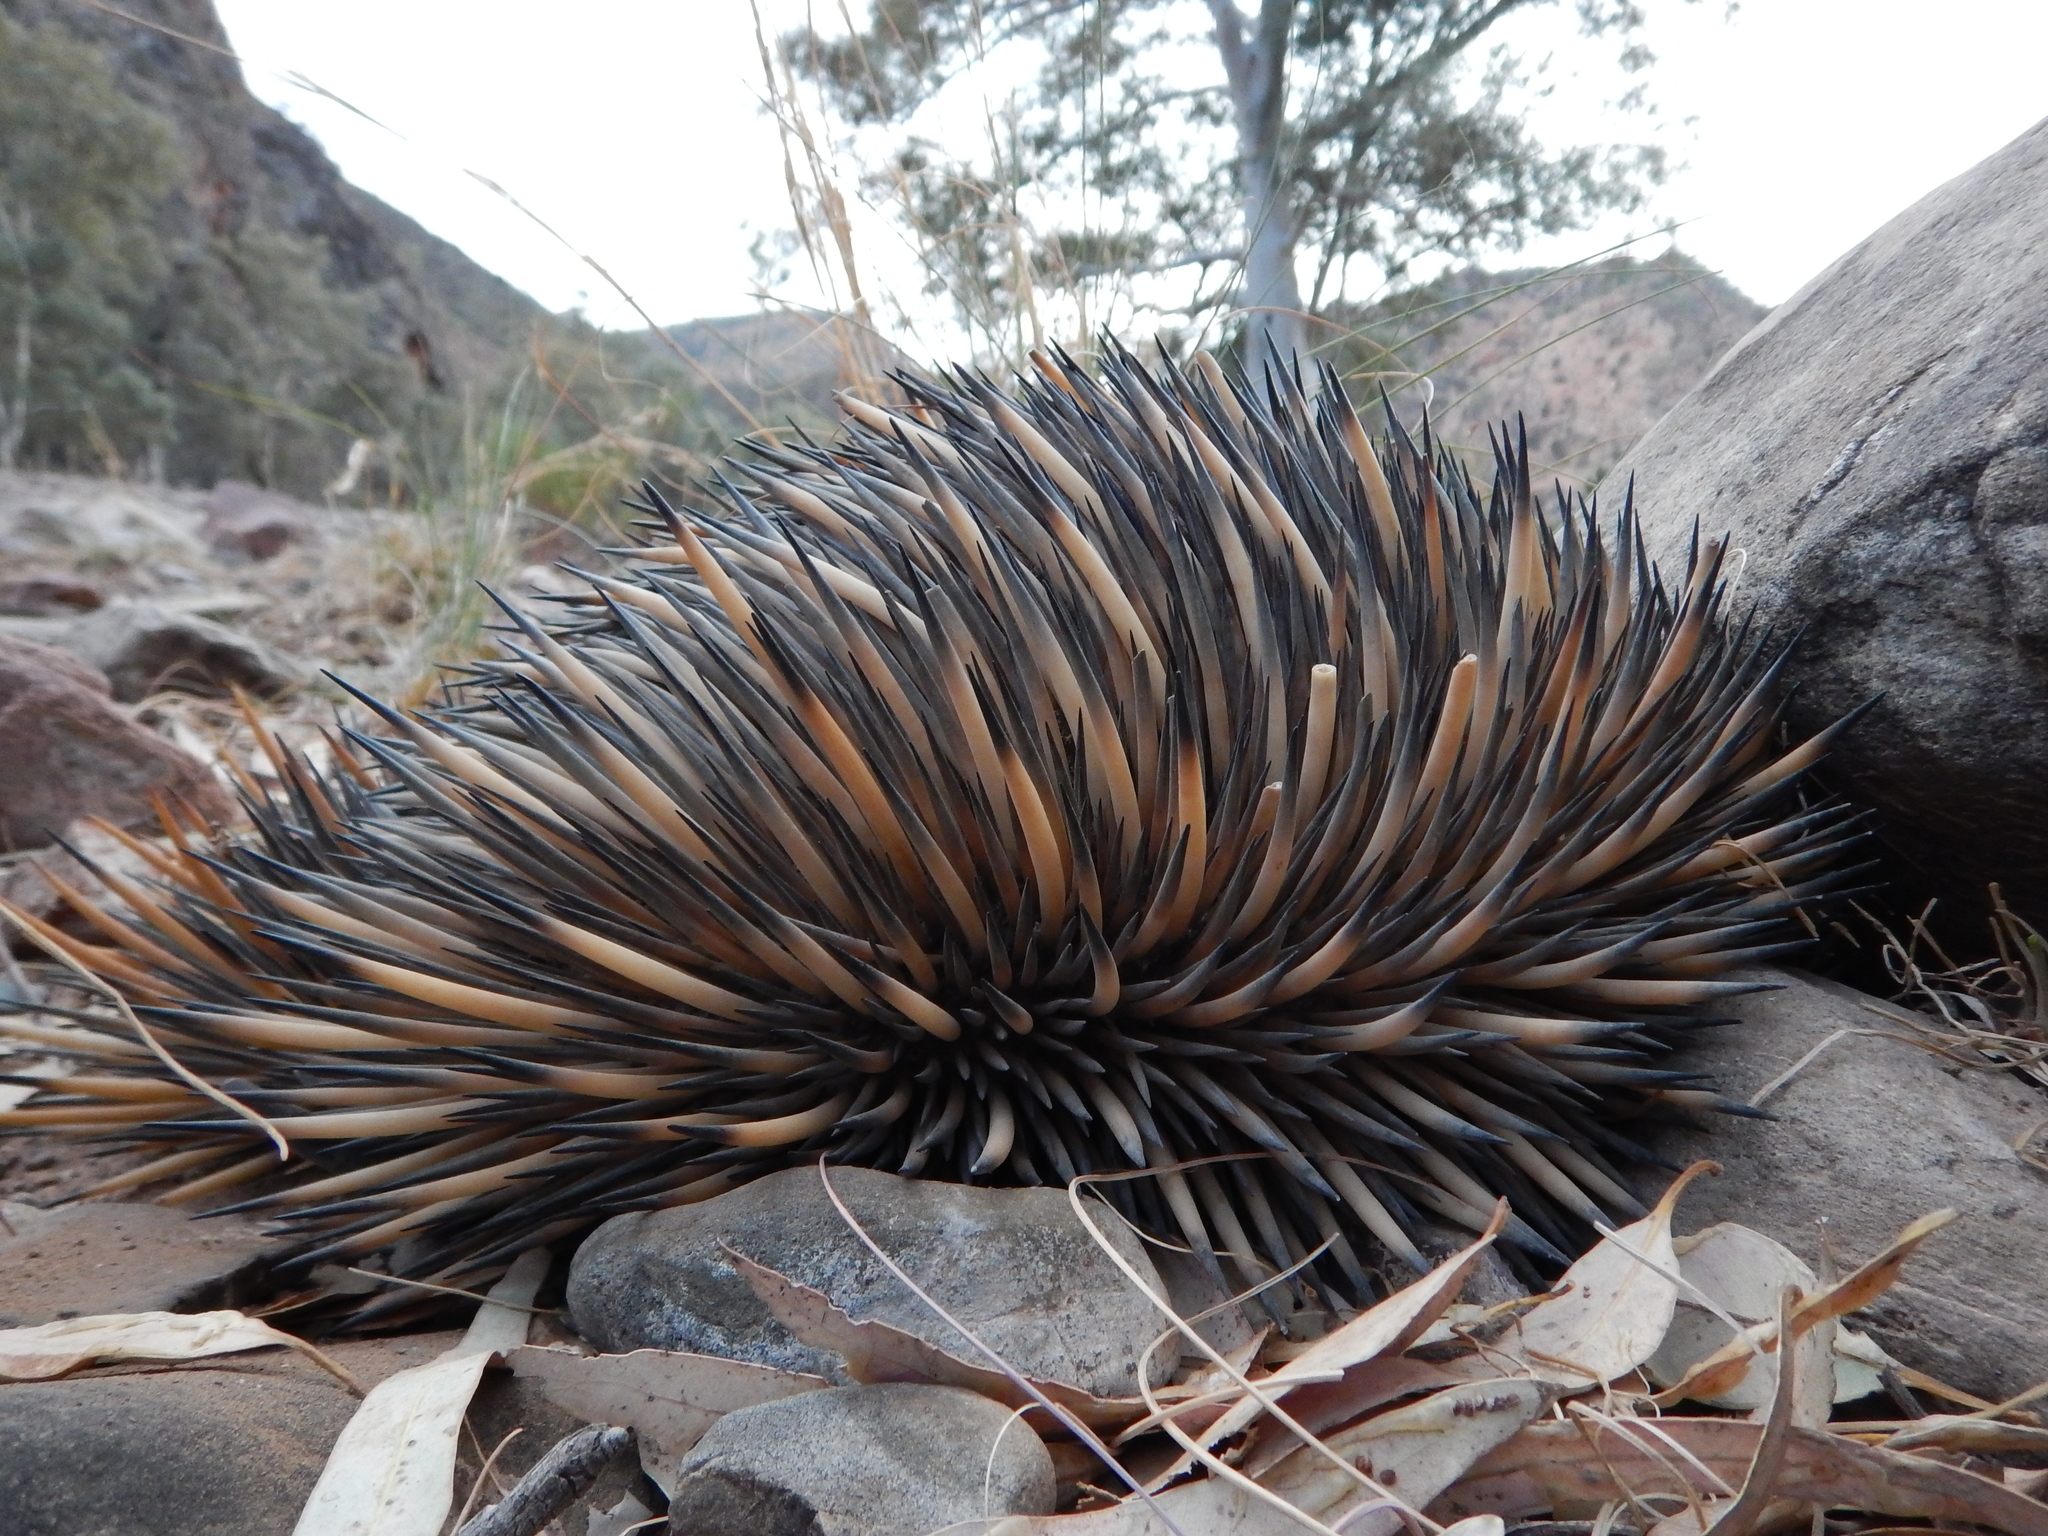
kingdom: Animalia
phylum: Chordata
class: Mammalia
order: Monotremata
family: Tachyglossidae
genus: Tachyglossus
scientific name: Tachyglossus aculeatus
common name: Short-beaked echidna
